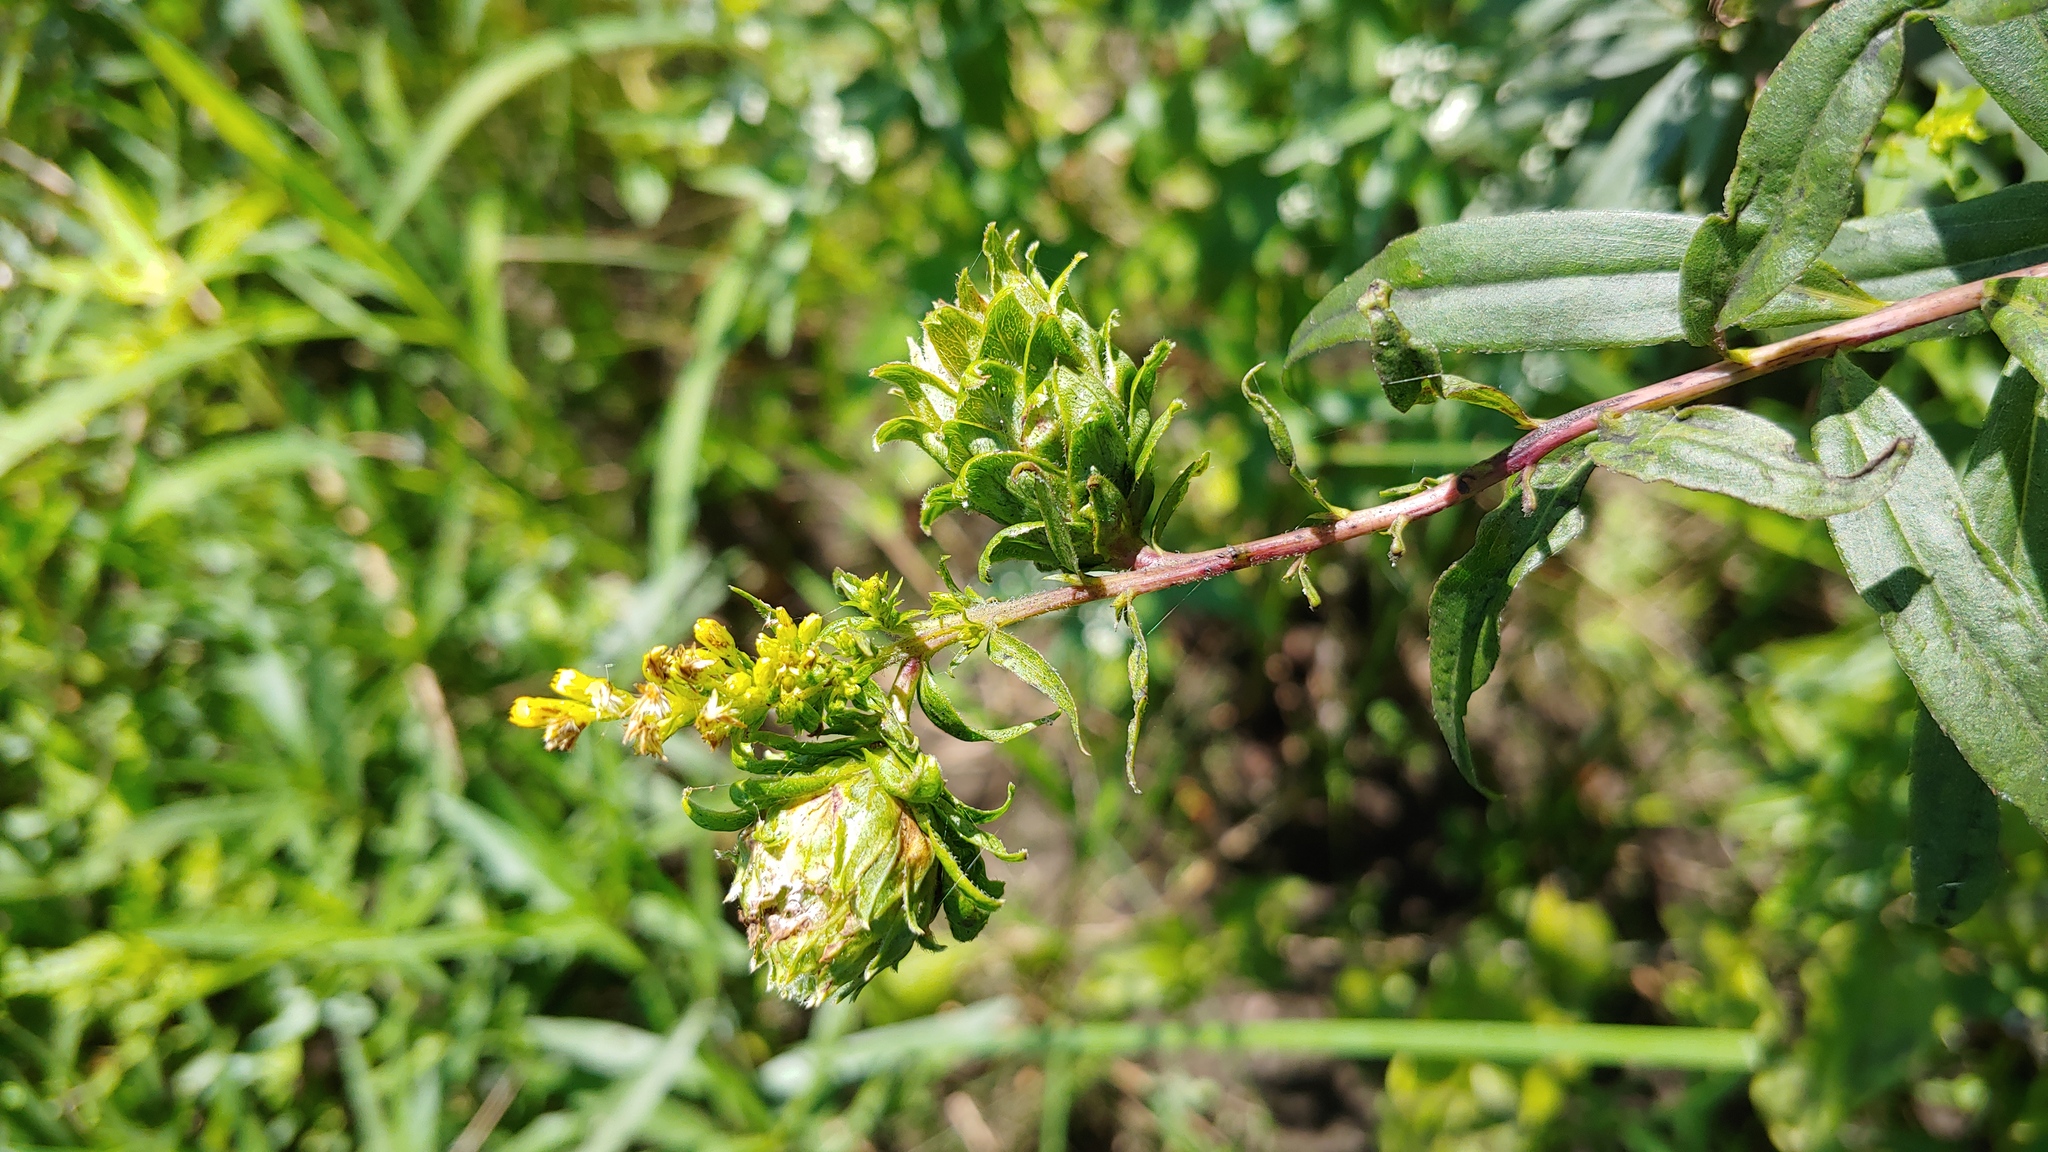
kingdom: Animalia
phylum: Arthropoda
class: Insecta
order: Diptera
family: Tephritidae
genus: Procecidochares
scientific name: Procecidochares atra
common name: Goldenrod brussels sprout gall fly
